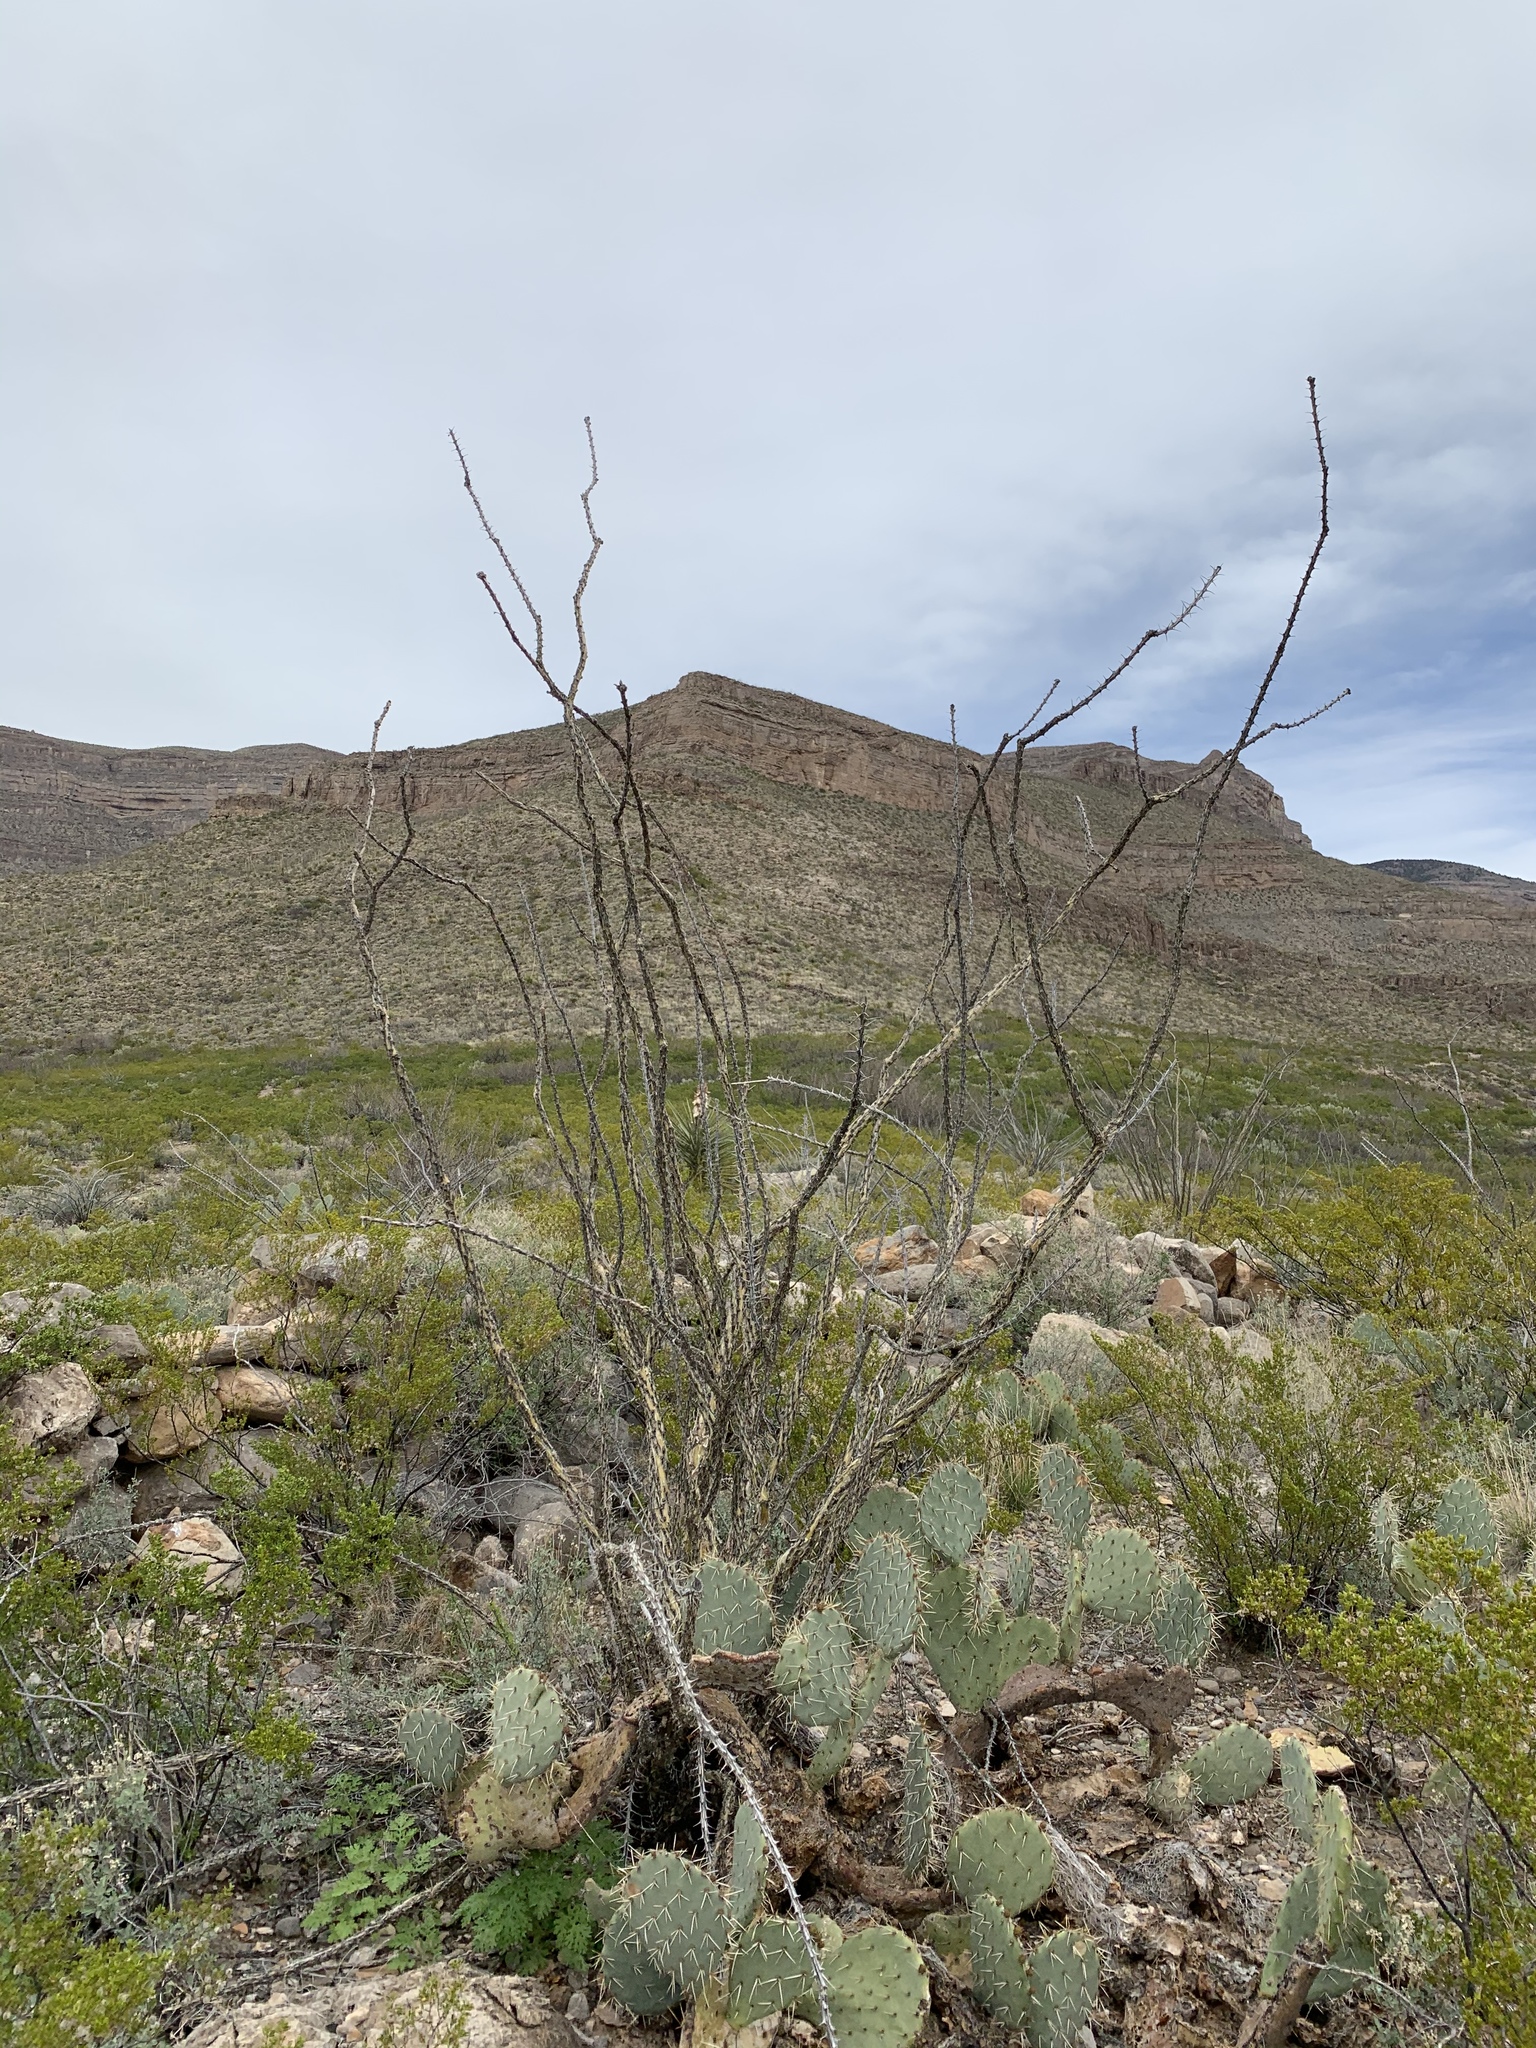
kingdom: Plantae
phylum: Tracheophyta
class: Magnoliopsida
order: Ericales
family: Fouquieriaceae
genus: Fouquieria
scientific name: Fouquieria splendens
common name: Vine-cactus
